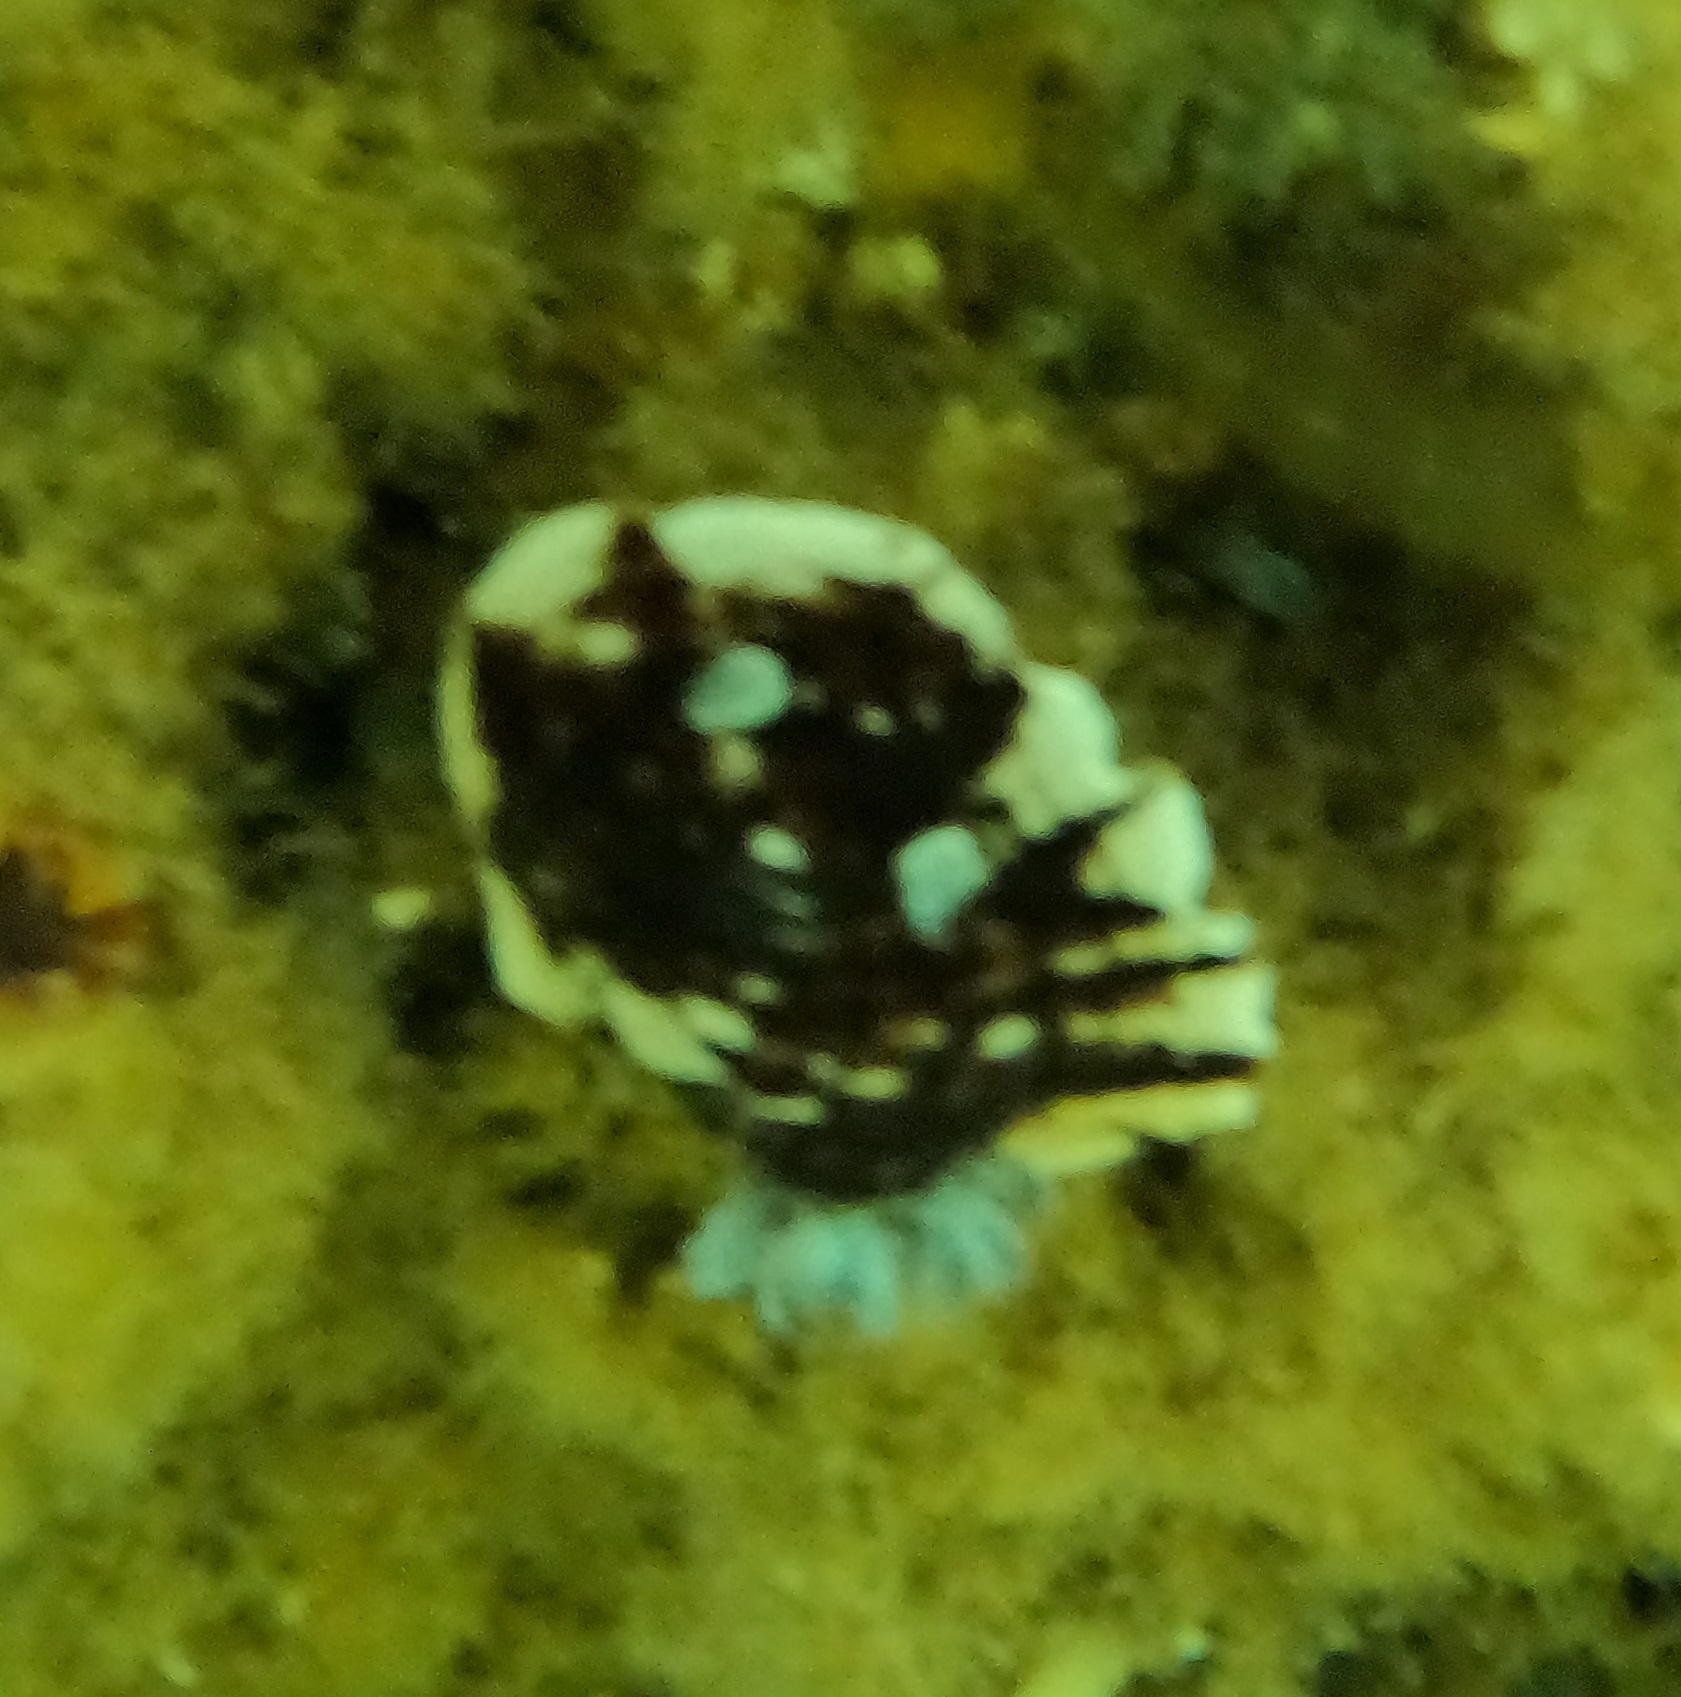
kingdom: Animalia
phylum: Mollusca
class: Gastropoda
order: Nudibranchia
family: Dorididae
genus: Aphelodoris
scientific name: Aphelodoris varia
